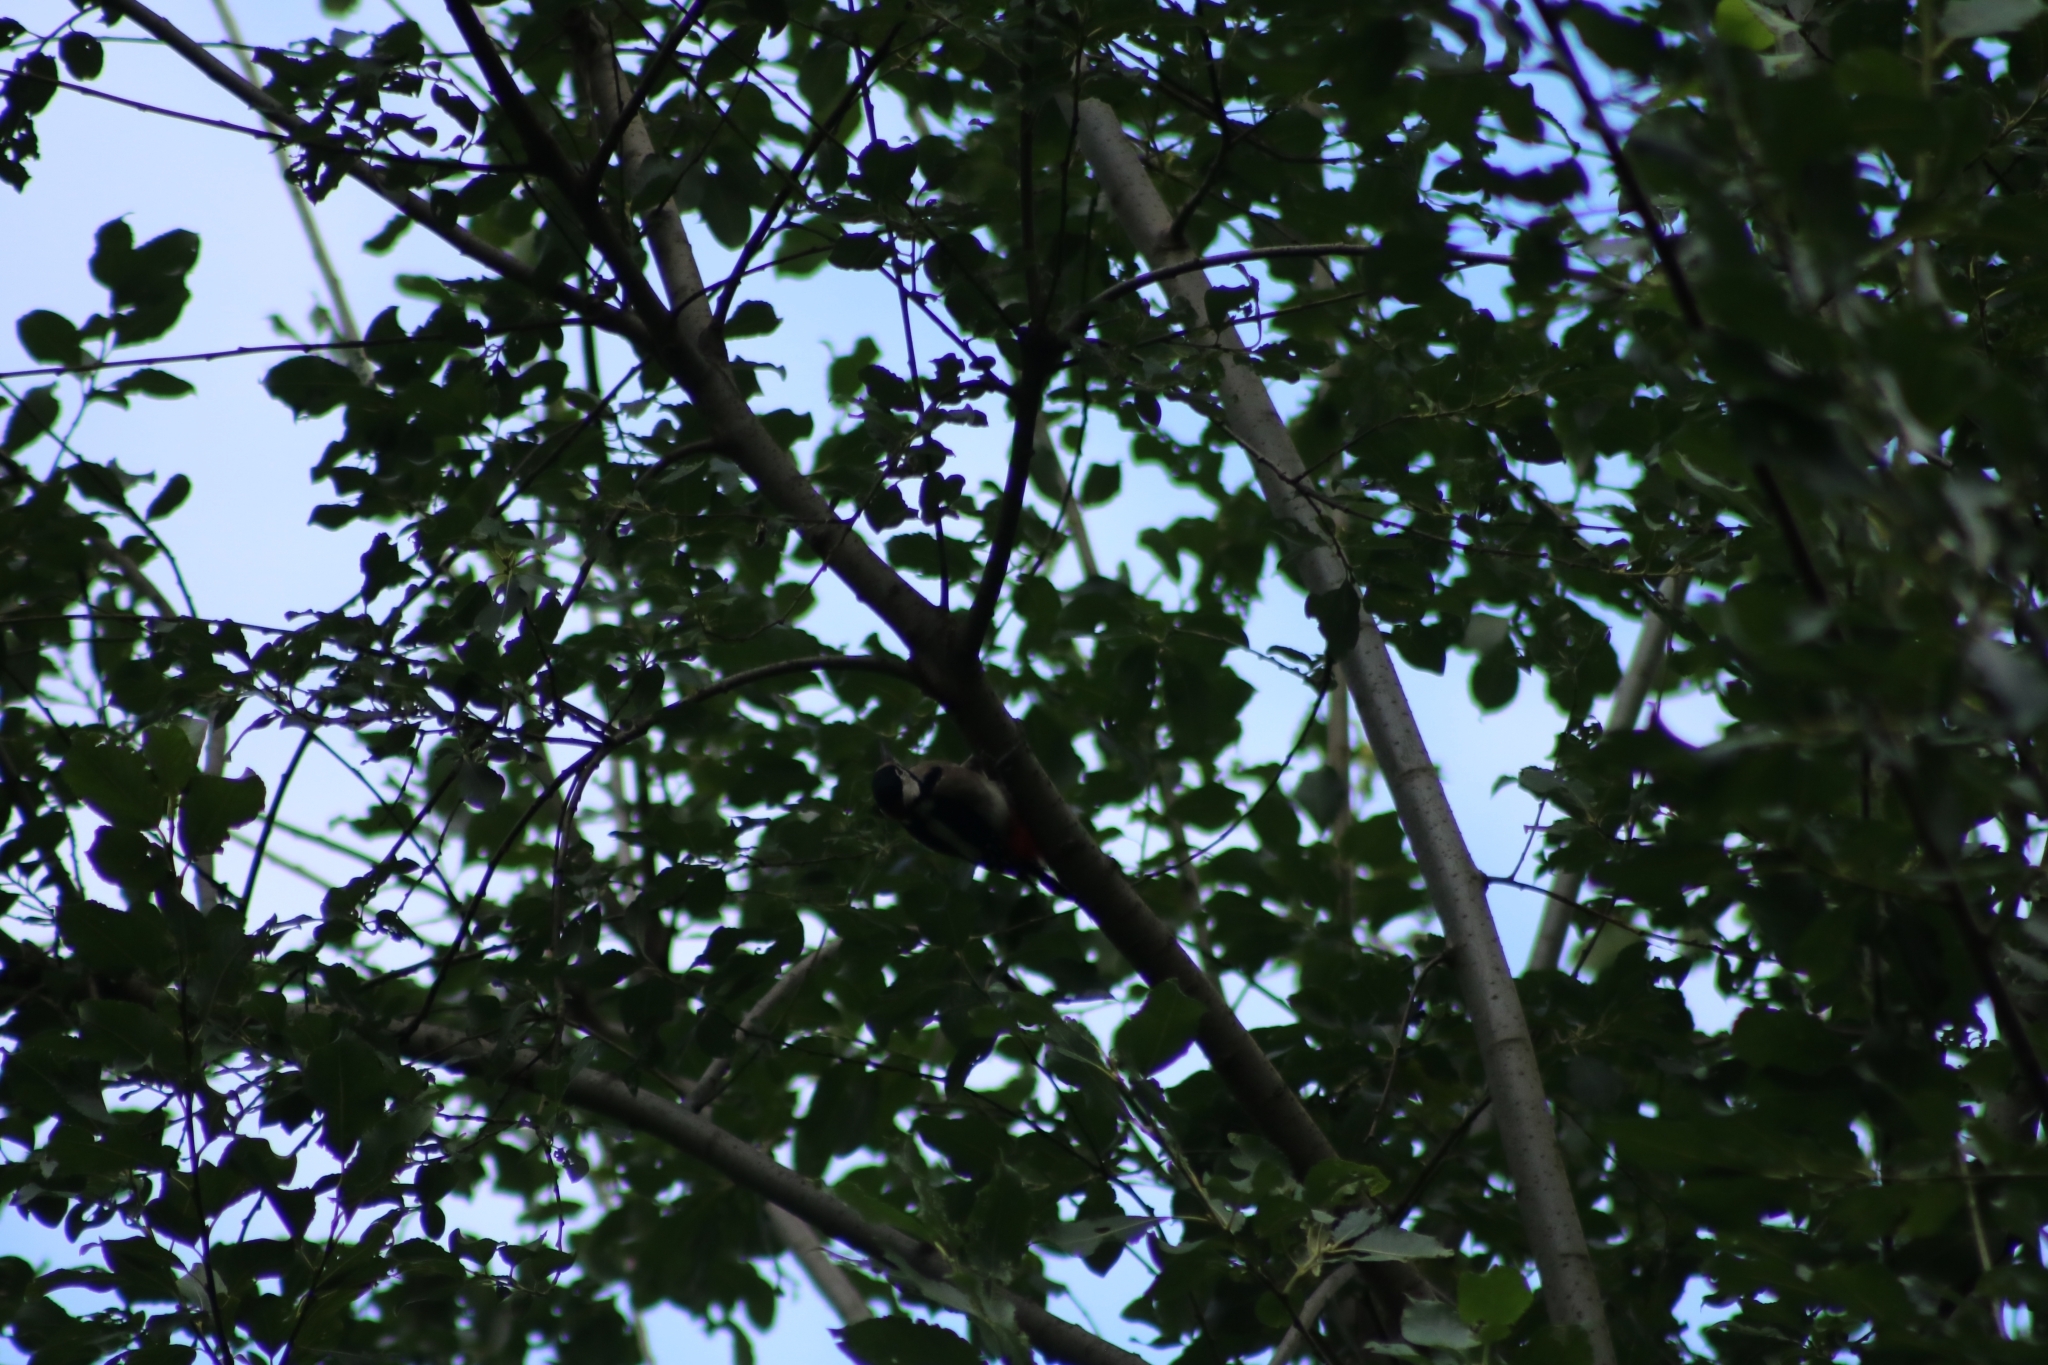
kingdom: Animalia
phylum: Chordata
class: Aves
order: Piciformes
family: Picidae
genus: Dendrocopos
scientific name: Dendrocopos major
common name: Great spotted woodpecker
